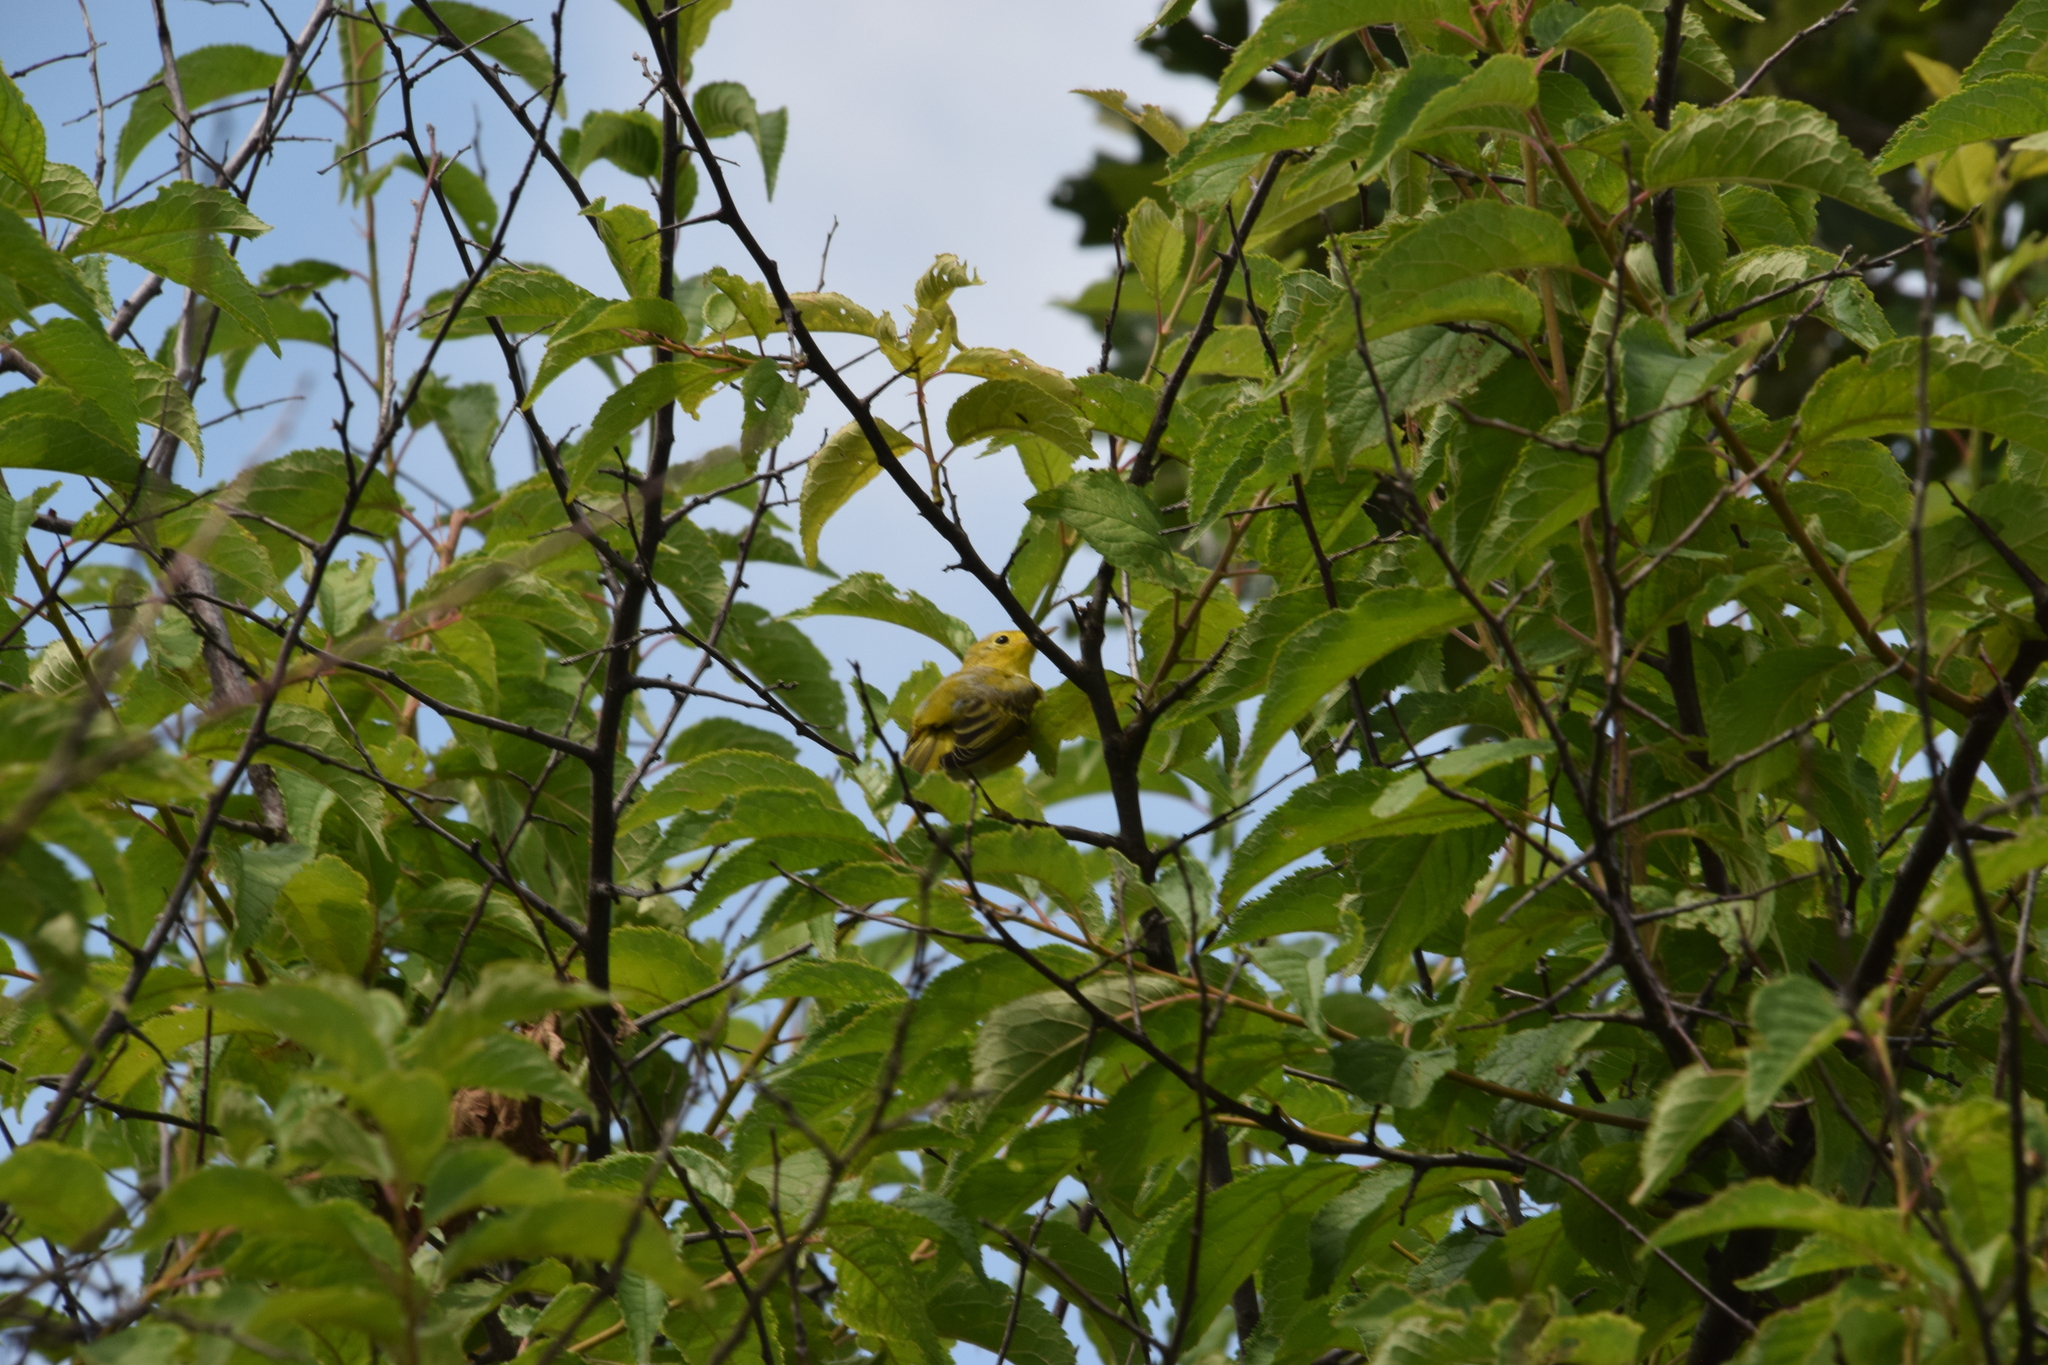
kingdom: Animalia
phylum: Chordata
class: Aves
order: Passeriformes
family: Parulidae
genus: Setophaga
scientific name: Setophaga petechia
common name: Yellow warbler
